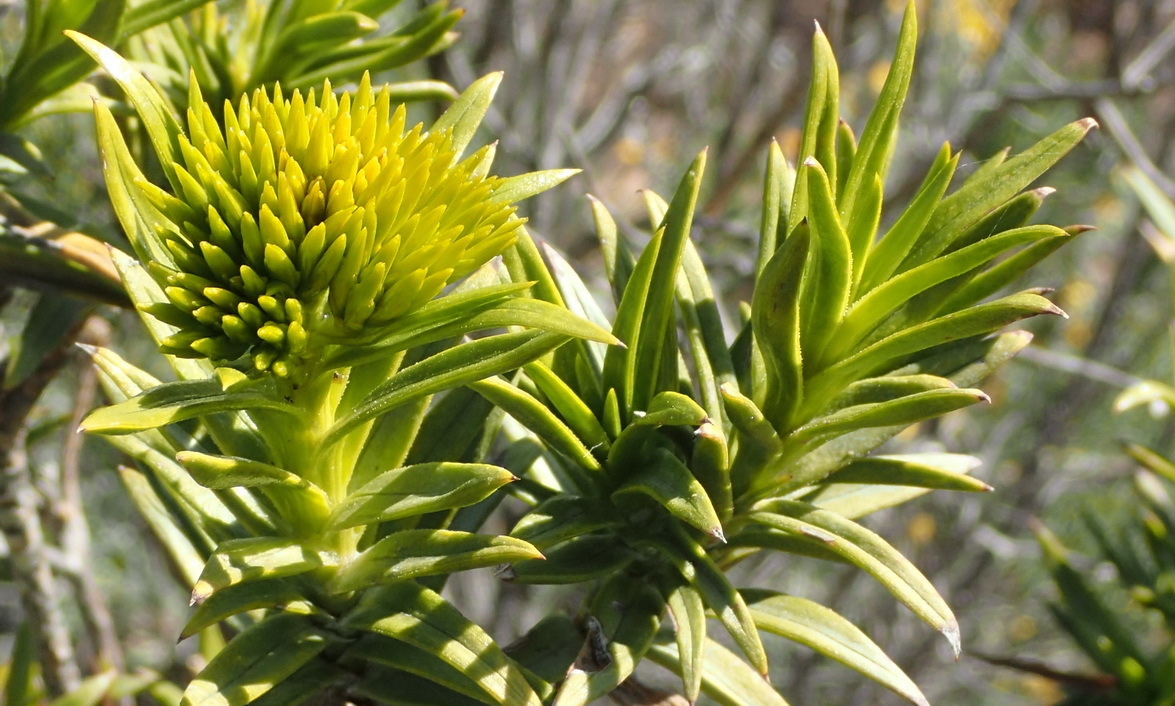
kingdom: Plantae
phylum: Tracheophyta
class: Magnoliopsida
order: Asterales
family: Asteraceae
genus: Pteronia
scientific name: Pteronia fasciculata
